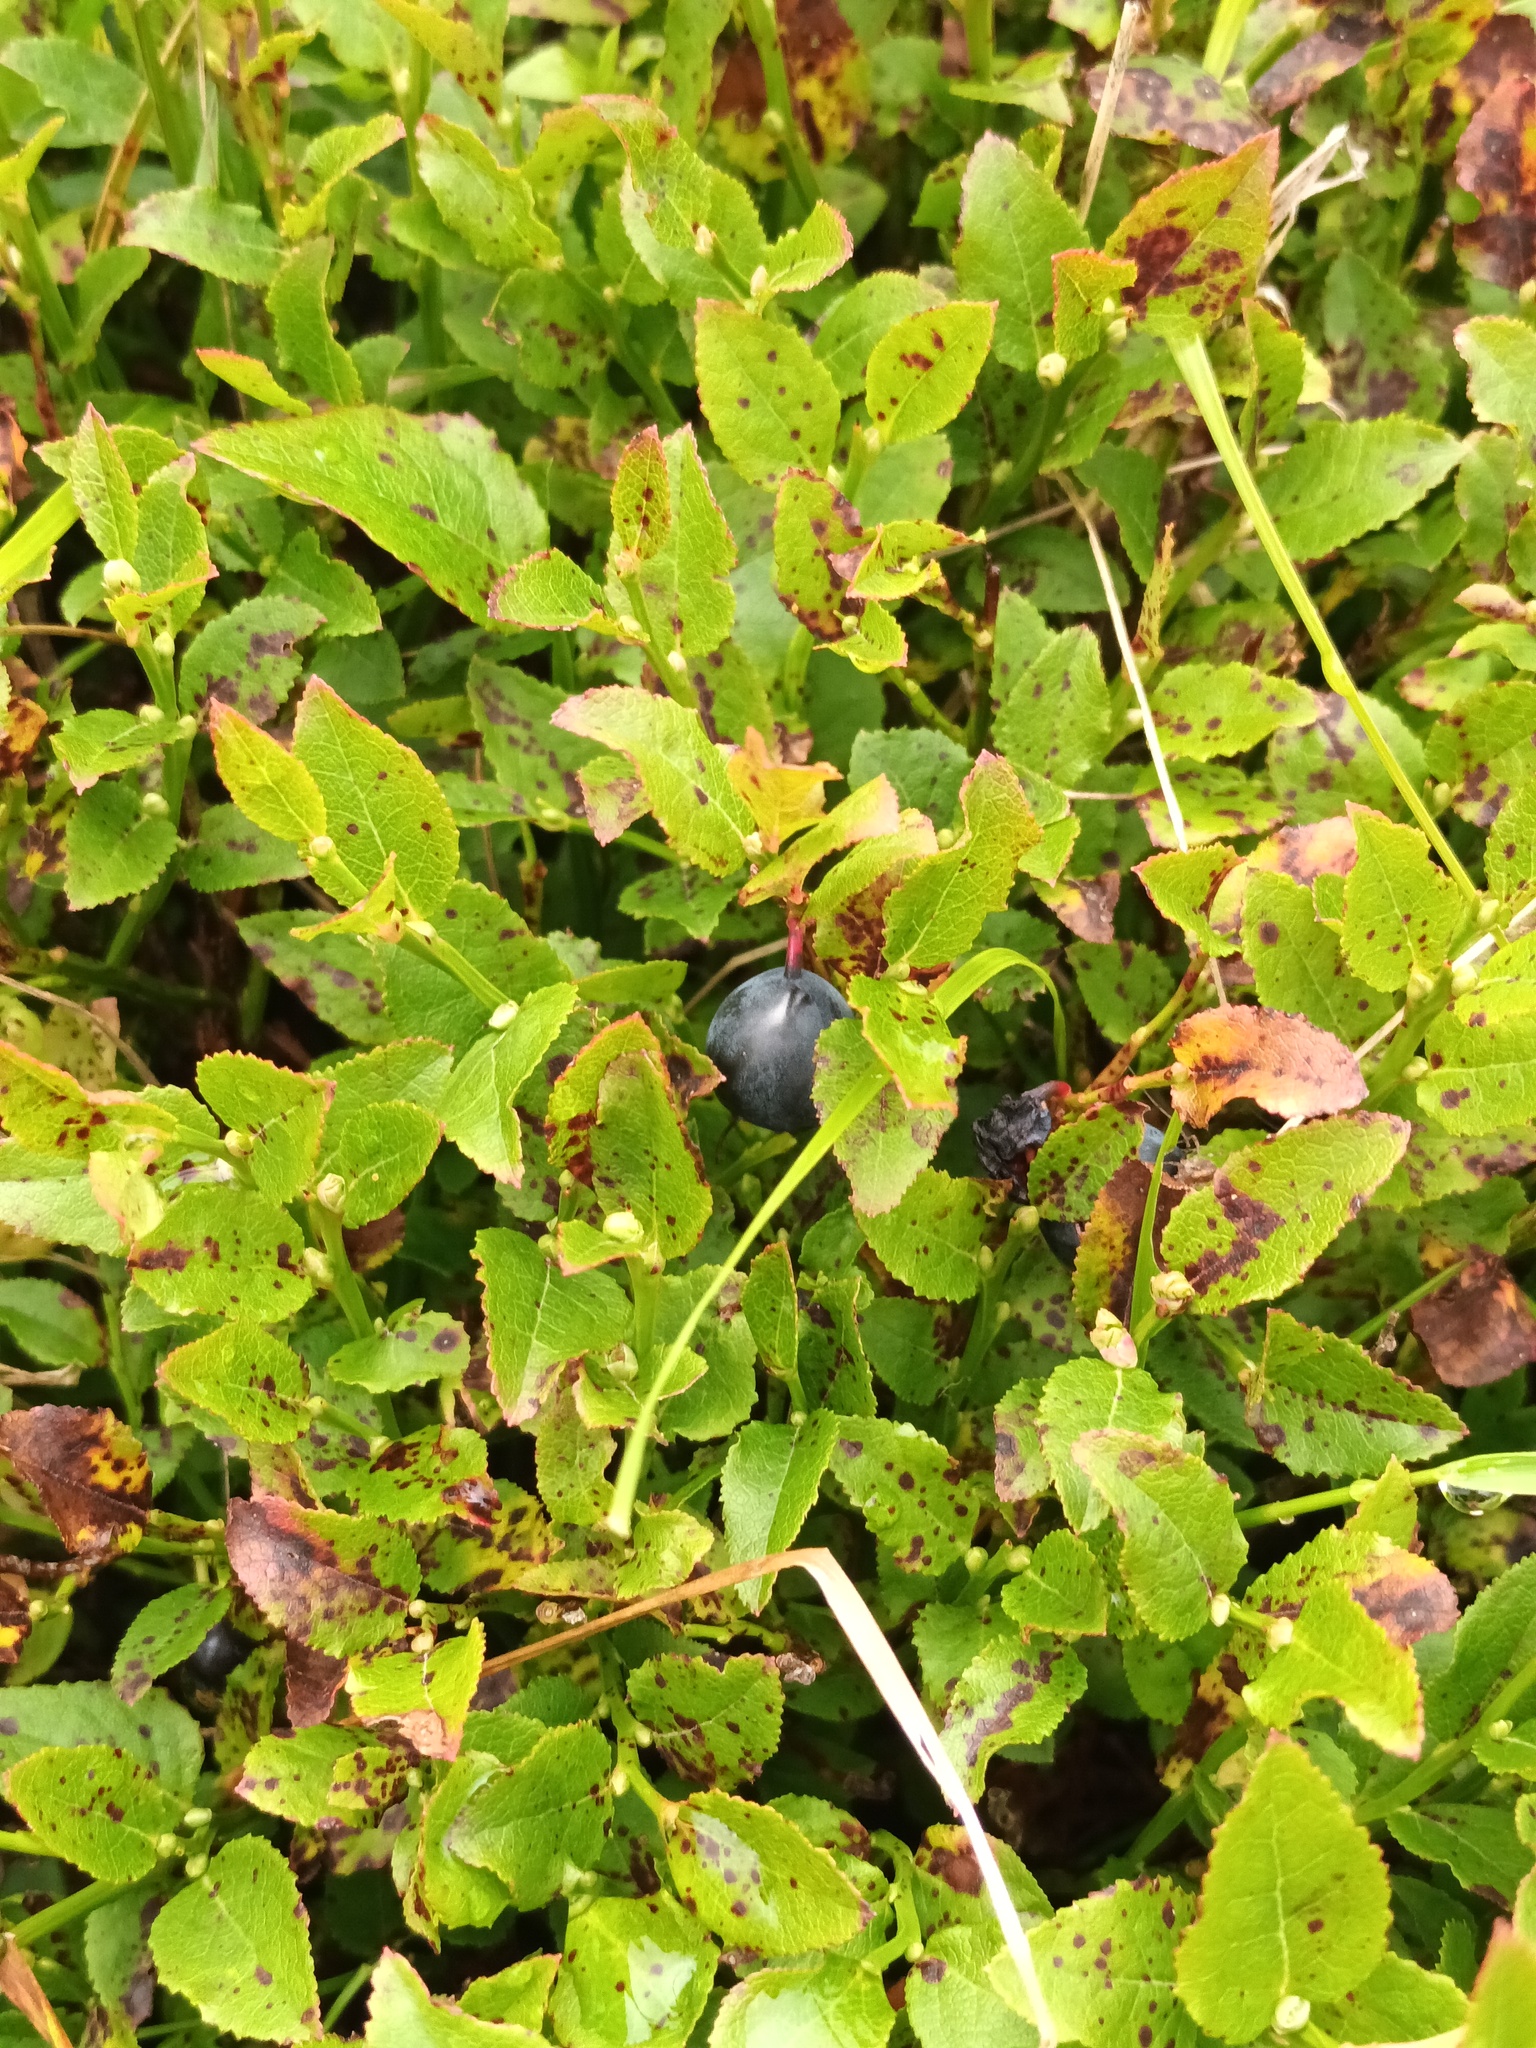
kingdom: Plantae
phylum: Tracheophyta
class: Magnoliopsida
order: Ericales
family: Ericaceae
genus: Vaccinium
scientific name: Vaccinium myrtillus
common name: Bilberry
